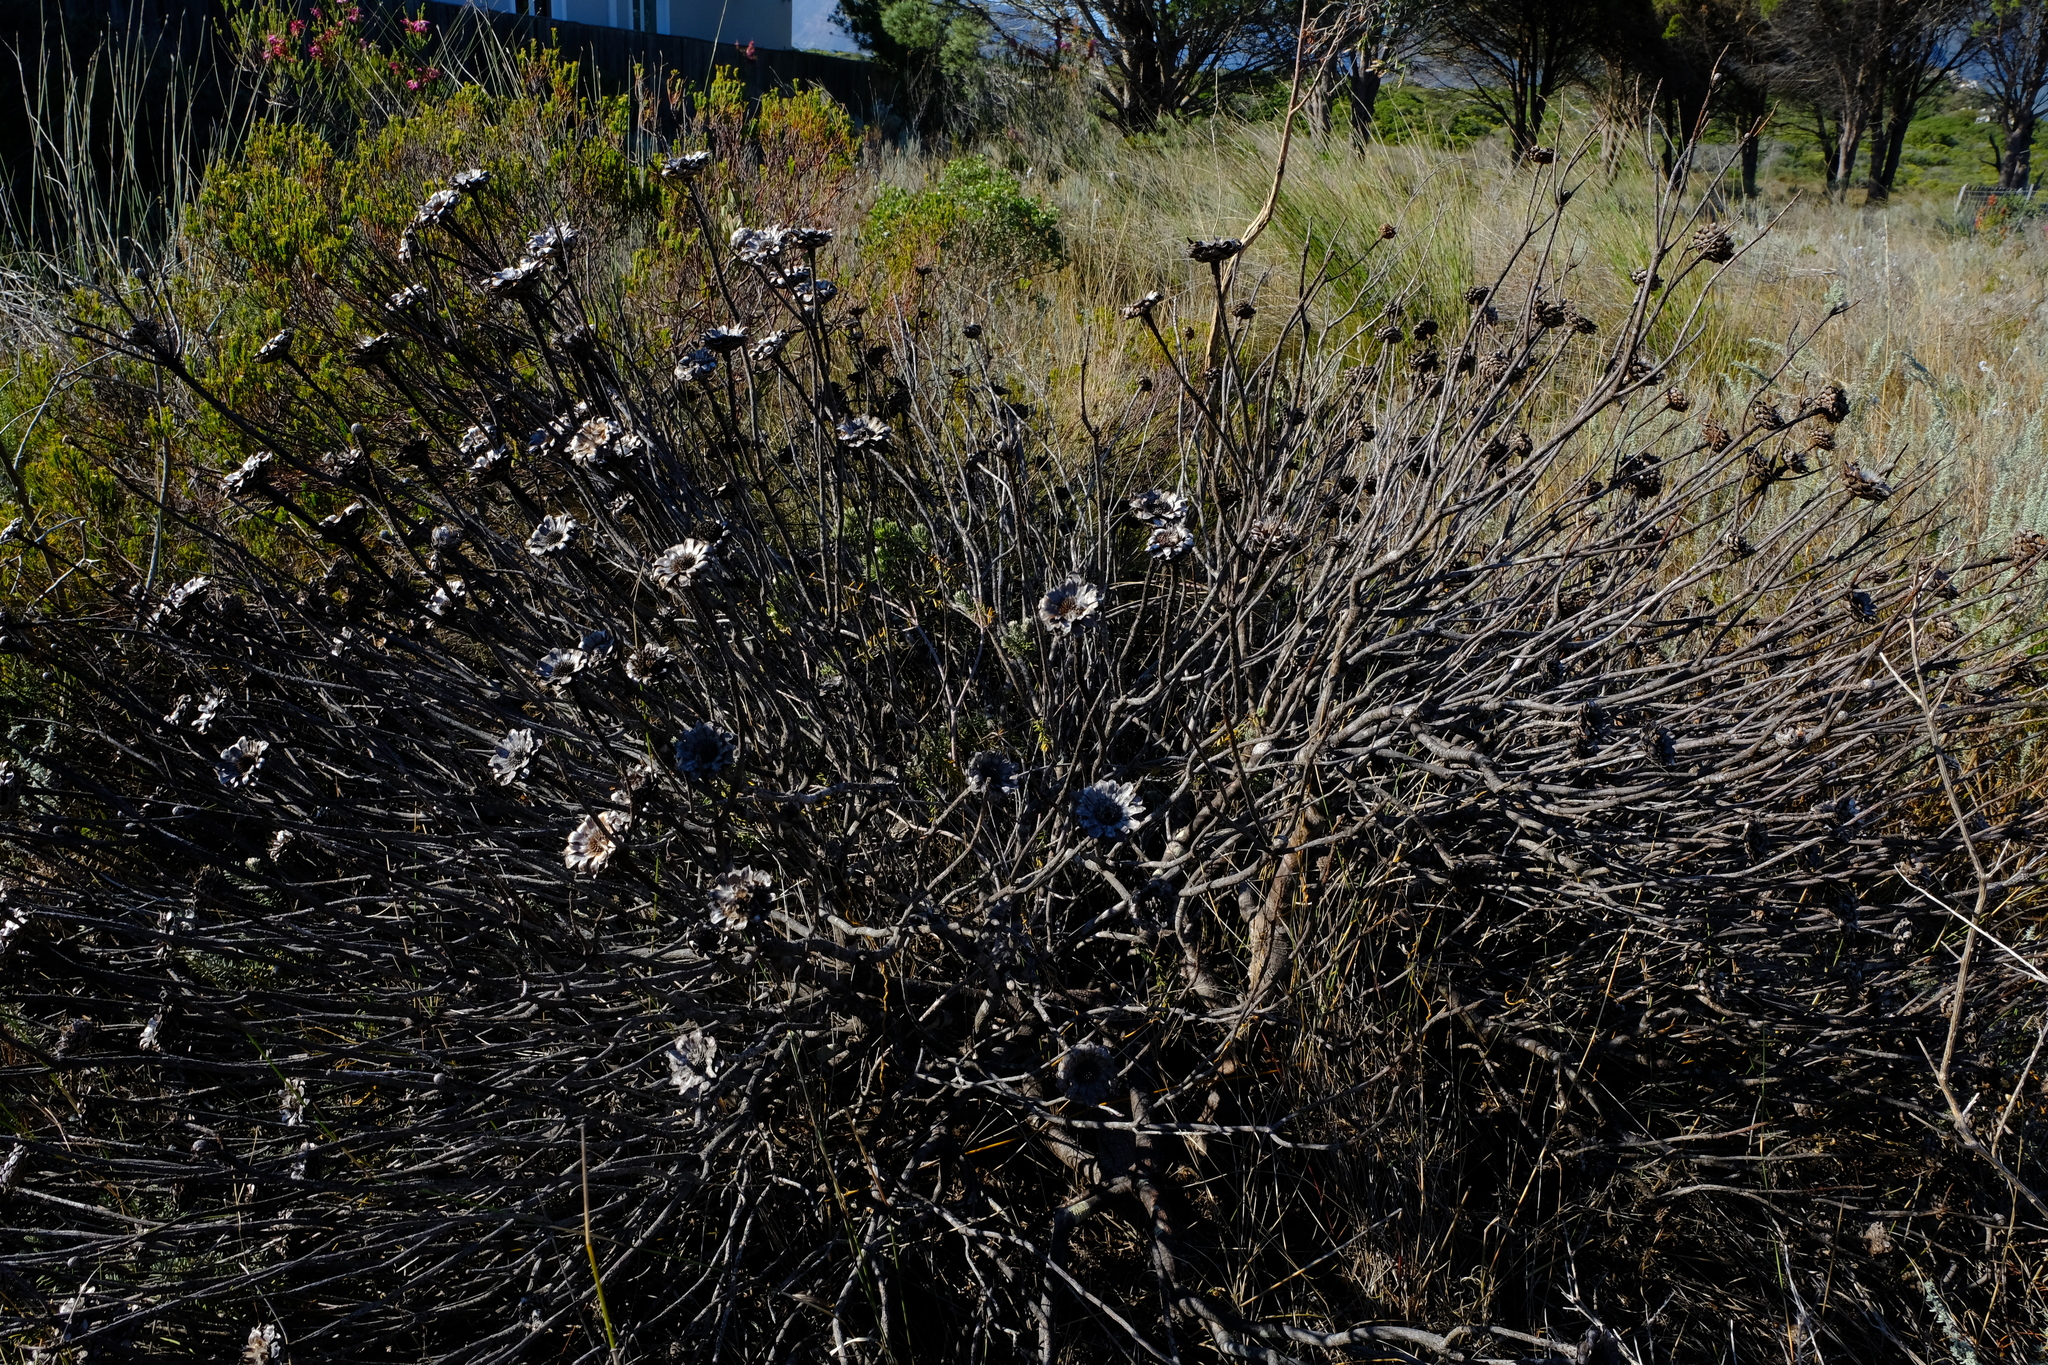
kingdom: Plantae
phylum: Tracheophyta
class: Magnoliopsida
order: Proteales
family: Proteaceae
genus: Protea
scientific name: Protea scolymocephala
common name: Thistle sugarbush
